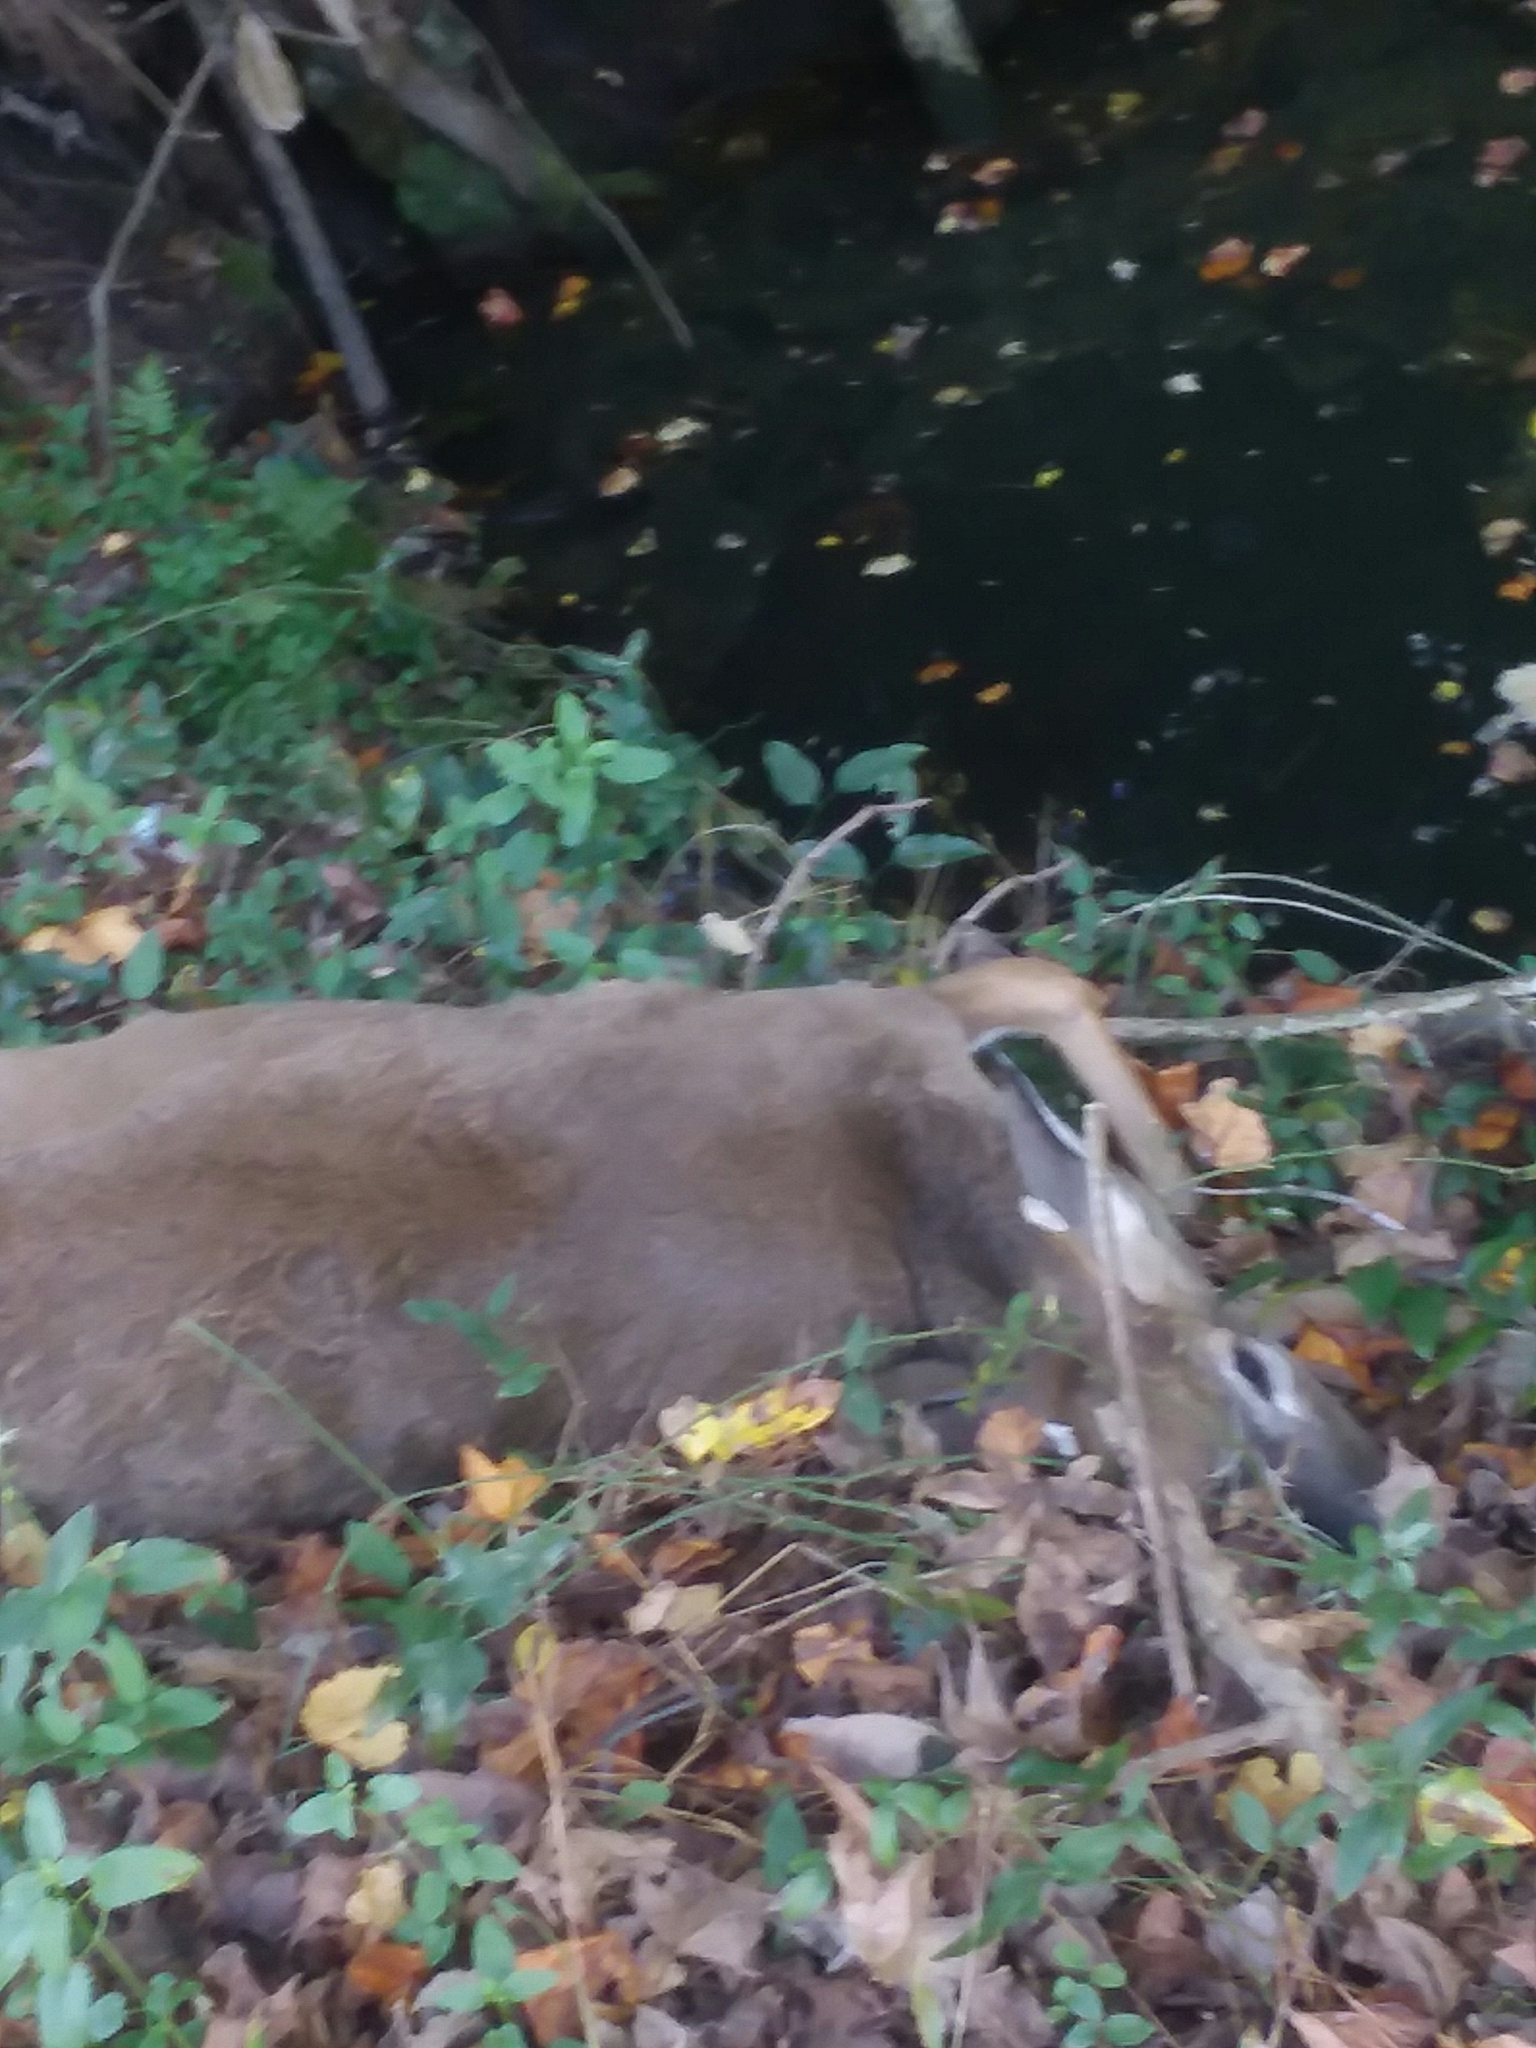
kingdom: Animalia
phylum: Chordata
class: Mammalia
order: Artiodactyla
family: Cervidae
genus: Odocoileus
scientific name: Odocoileus virginianus
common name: White-tailed deer
